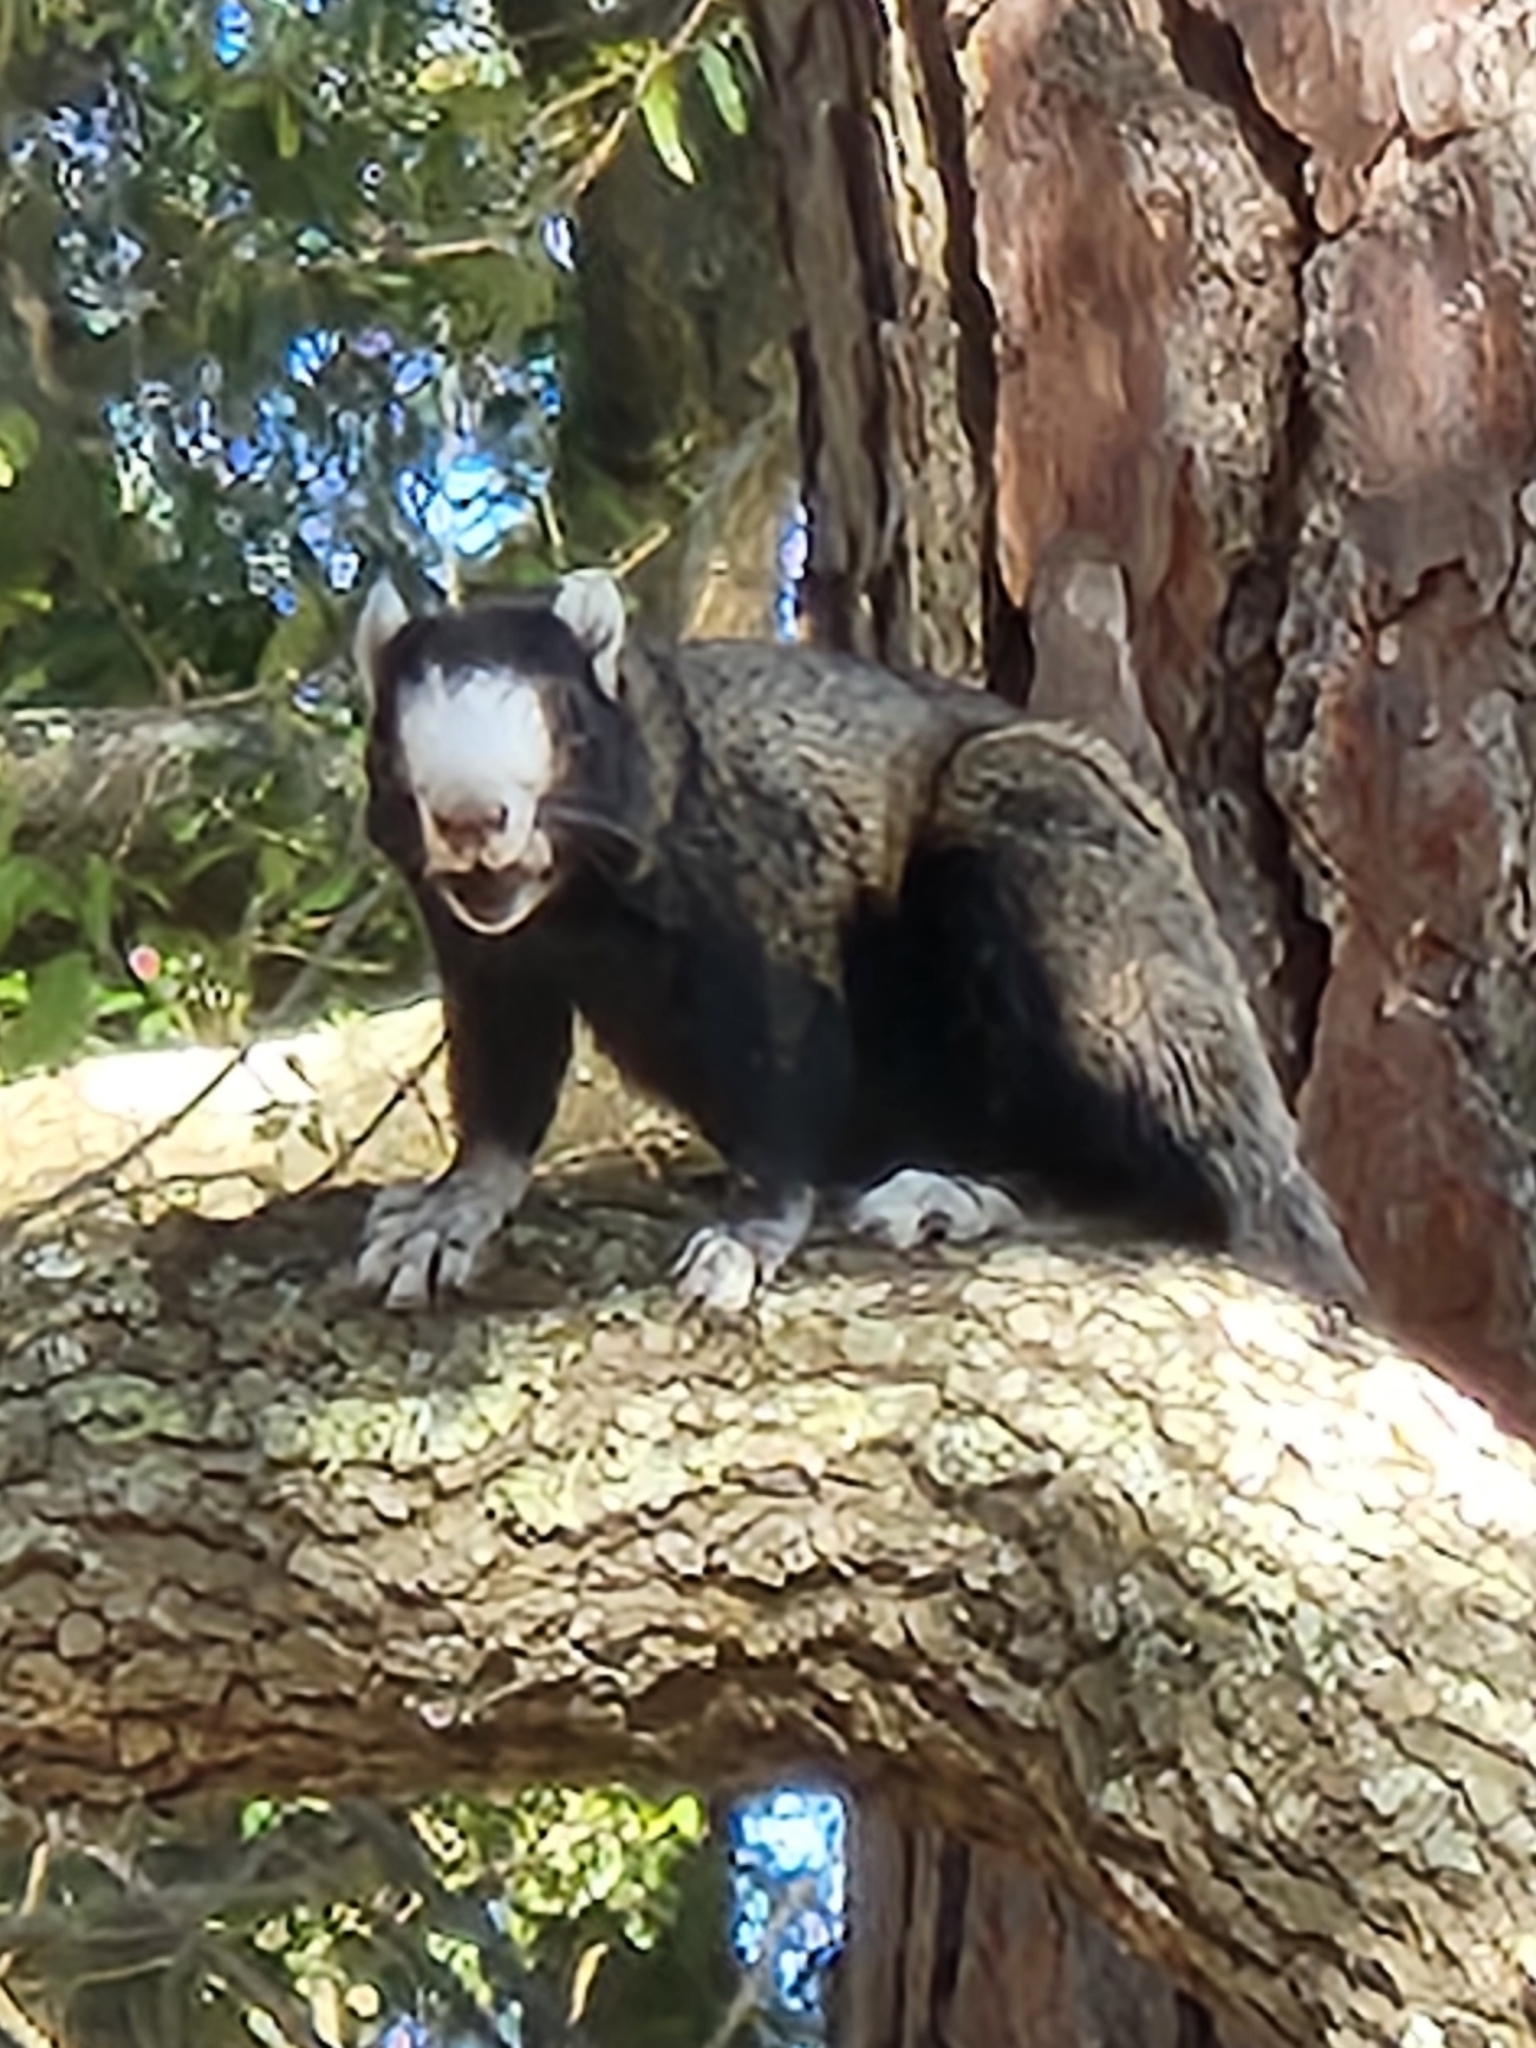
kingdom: Animalia
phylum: Chordata
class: Mammalia
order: Rodentia
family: Sciuridae
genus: Sciurus
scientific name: Sciurus niger
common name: Fox squirrel
